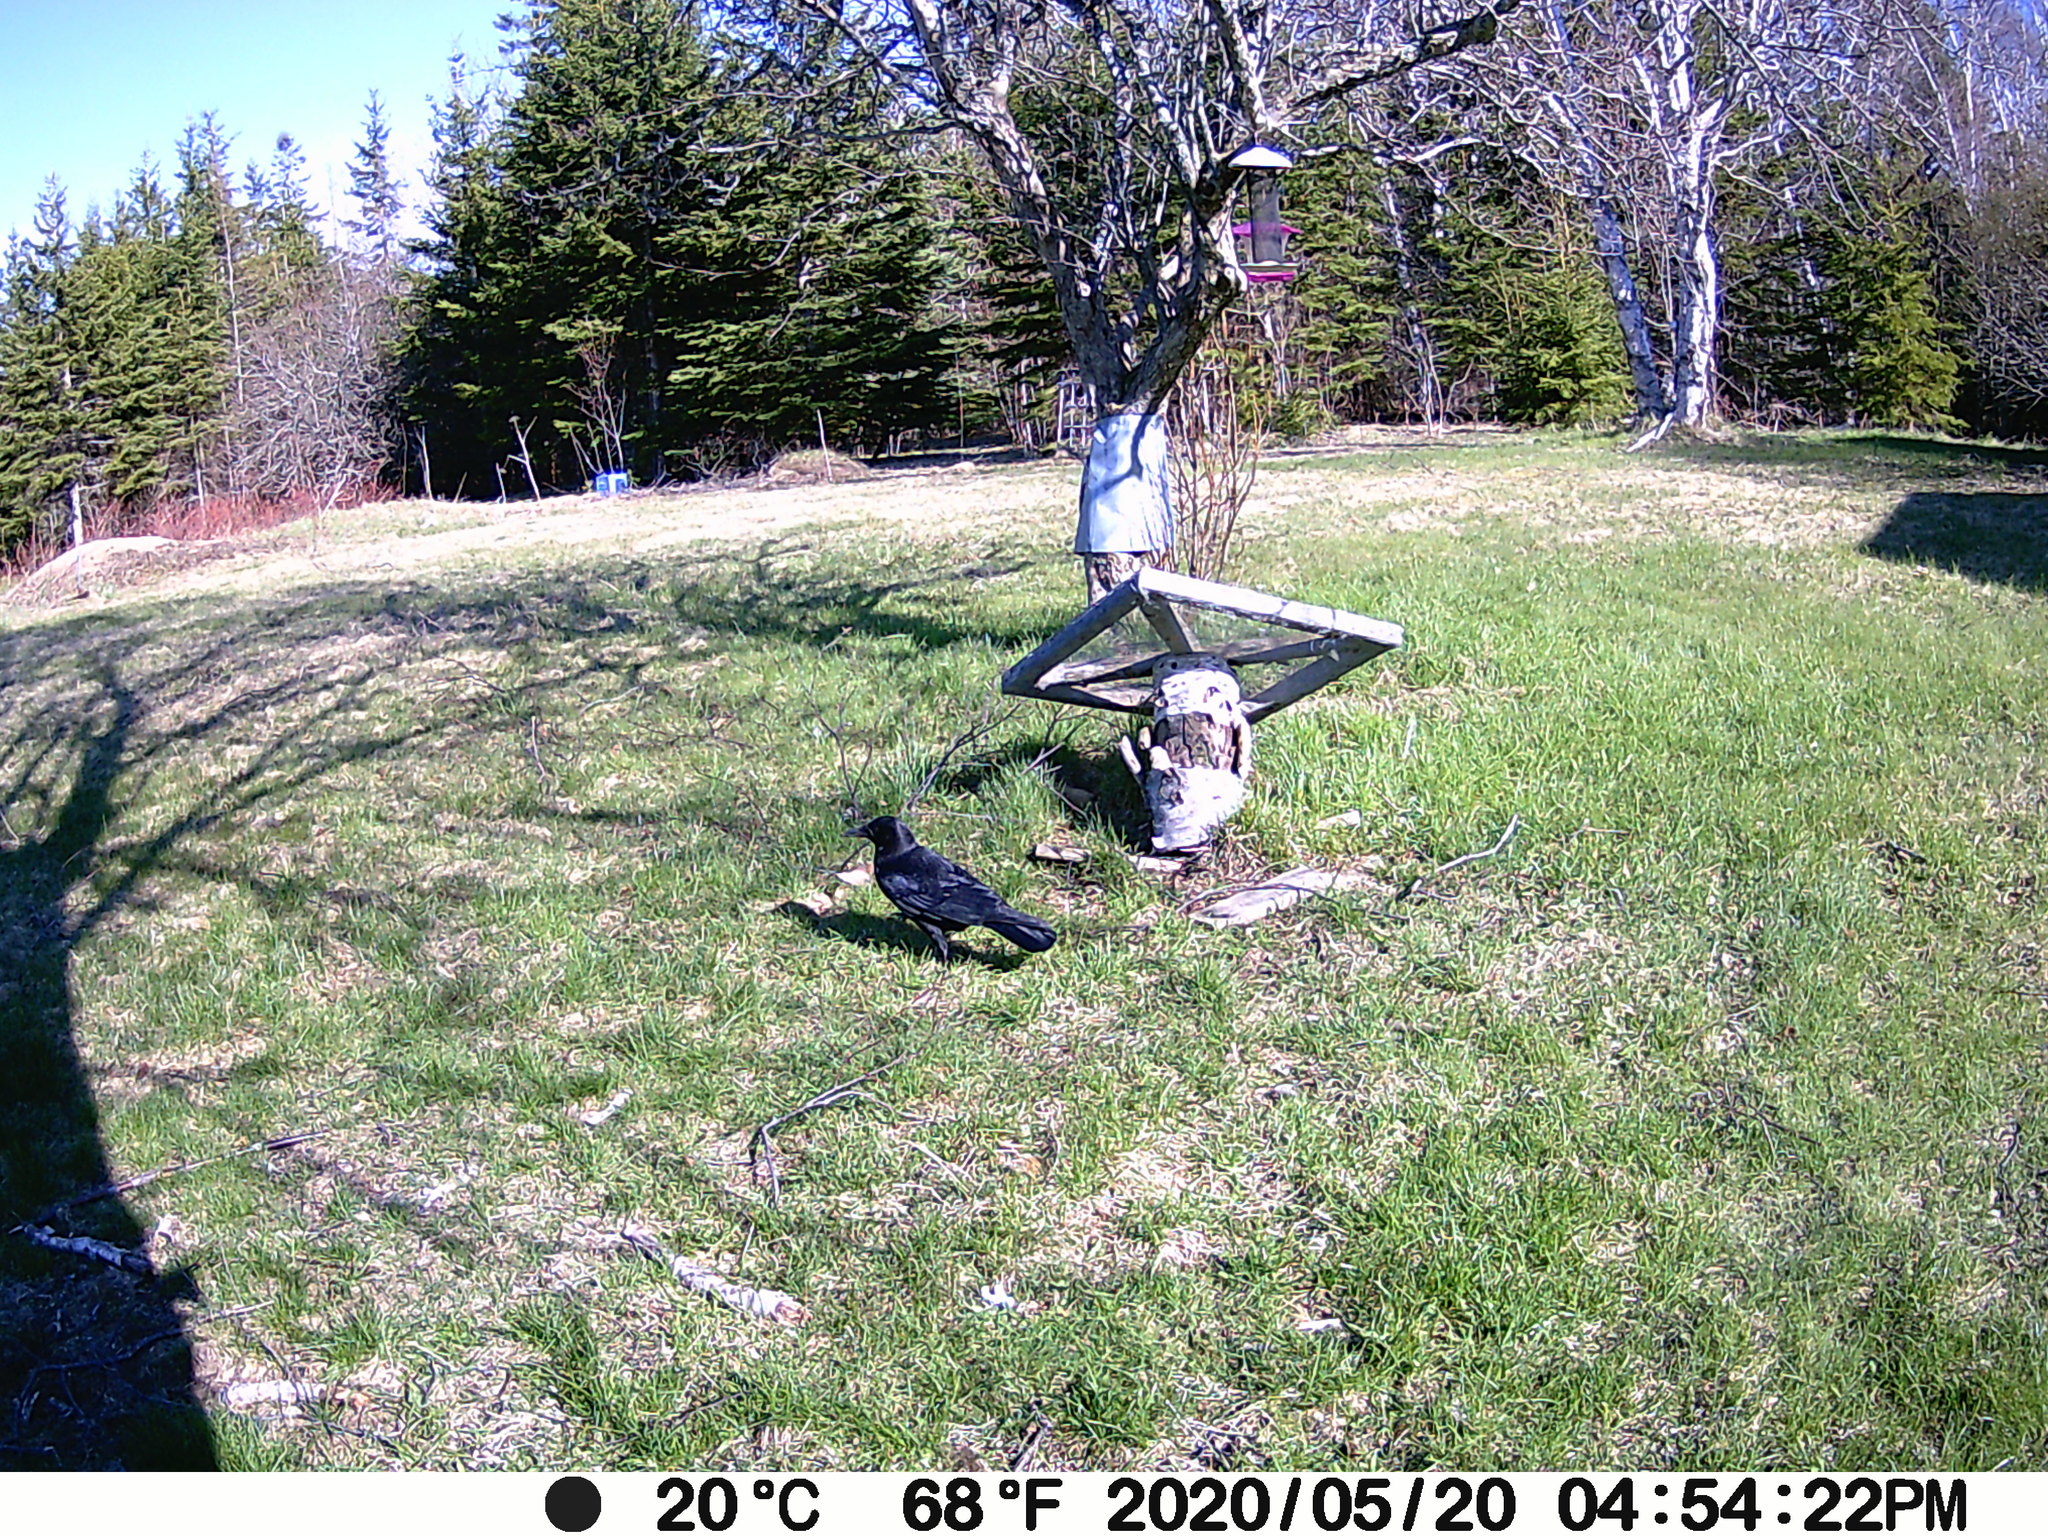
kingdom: Animalia
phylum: Chordata
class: Aves
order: Passeriformes
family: Corvidae
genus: Corvus
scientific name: Corvus brachyrhynchos
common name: American crow
